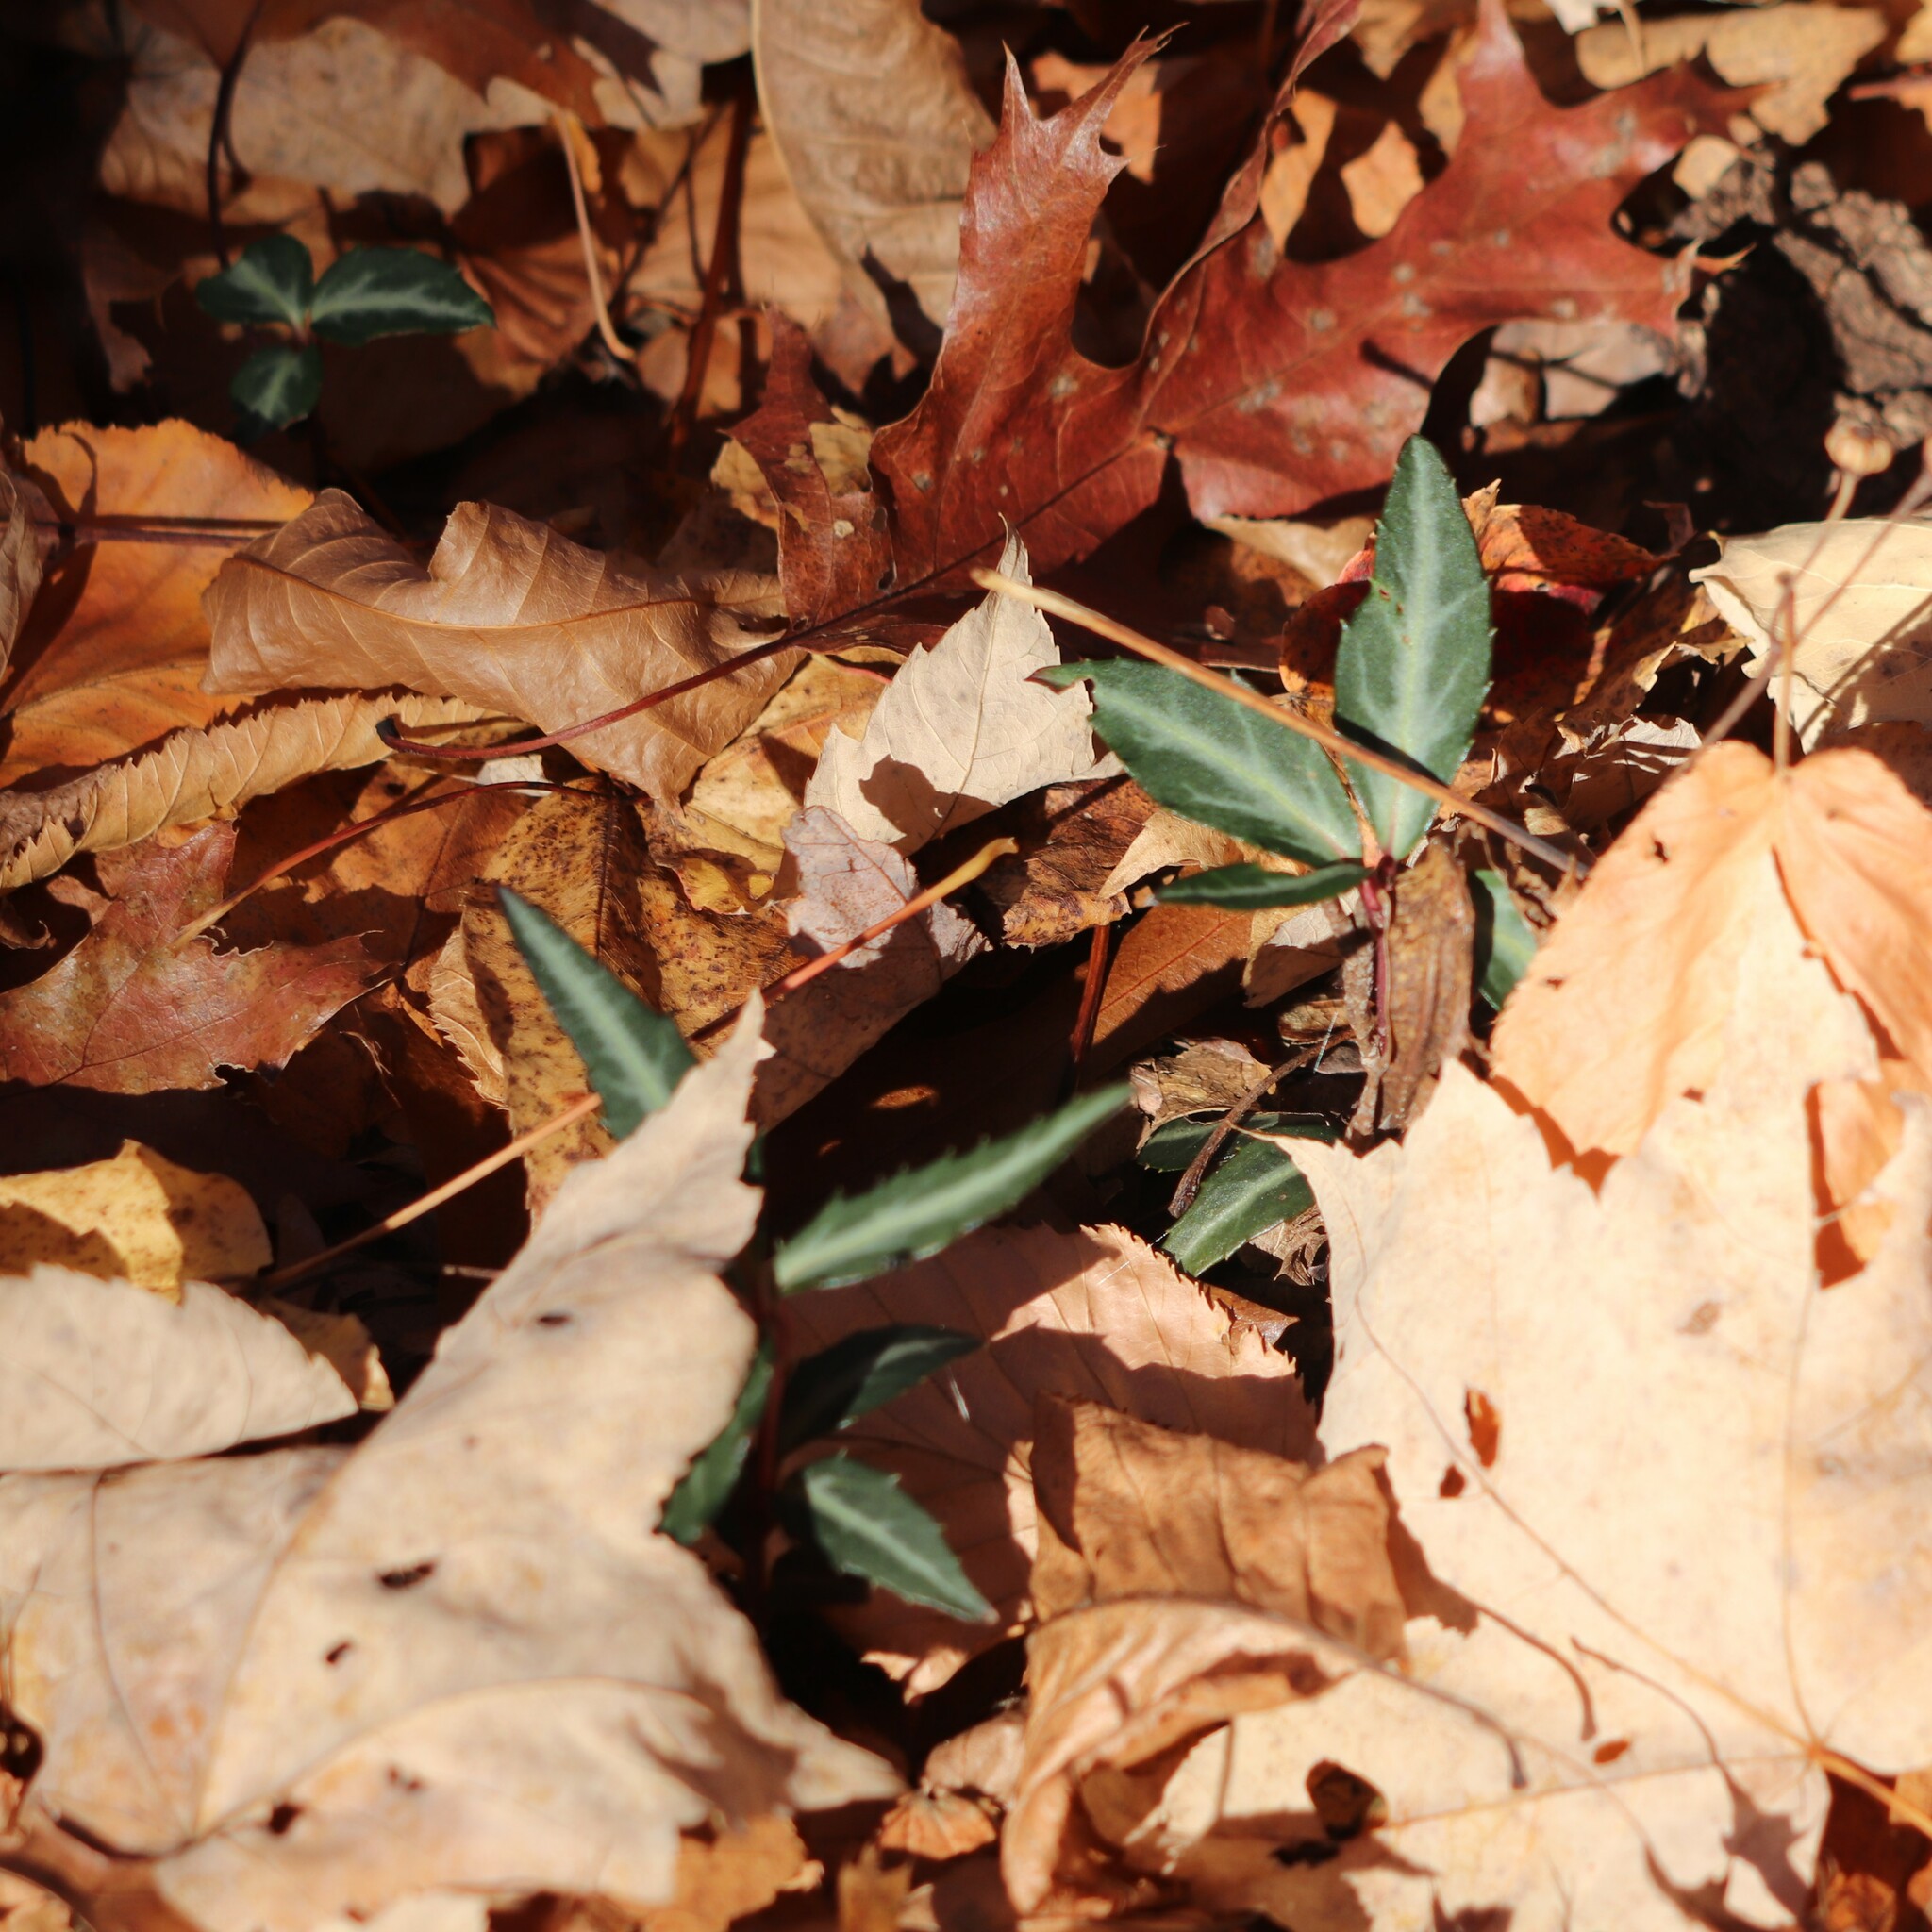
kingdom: Plantae
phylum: Tracheophyta
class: Magnoliopsida
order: Ericales
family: Ericaceae
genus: Chimaphila
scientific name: Chimaphila maculata
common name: Spotted pipsissewa
